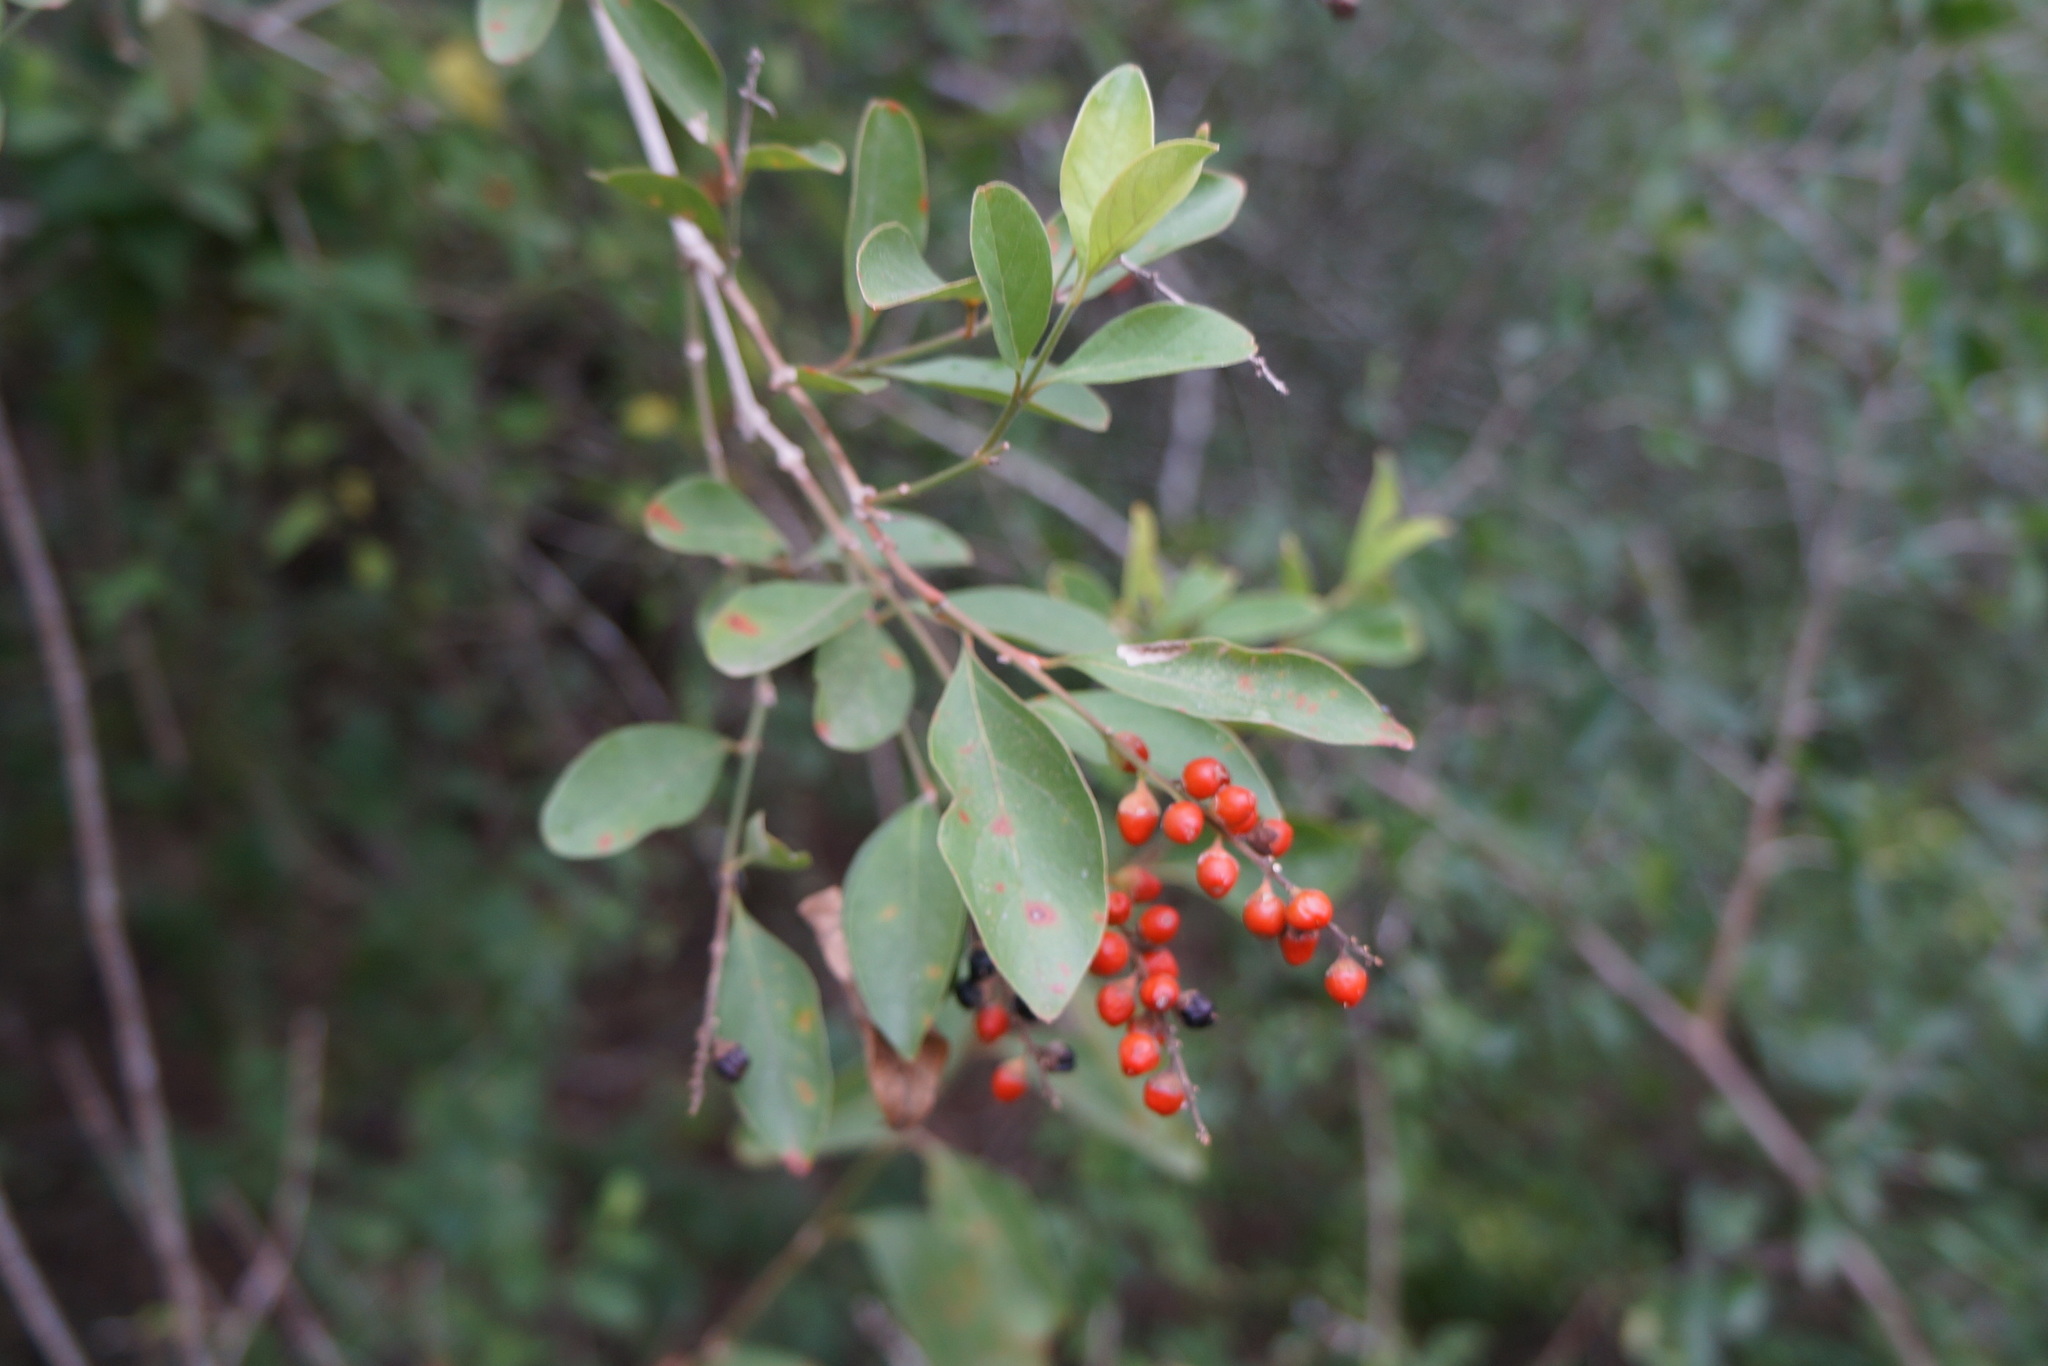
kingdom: Plantae
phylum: Tracheophyta
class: Magnoliopsida
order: Lamiales
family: Verbenaceae
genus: Citharexylum
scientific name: Citharexylum berlandieri
